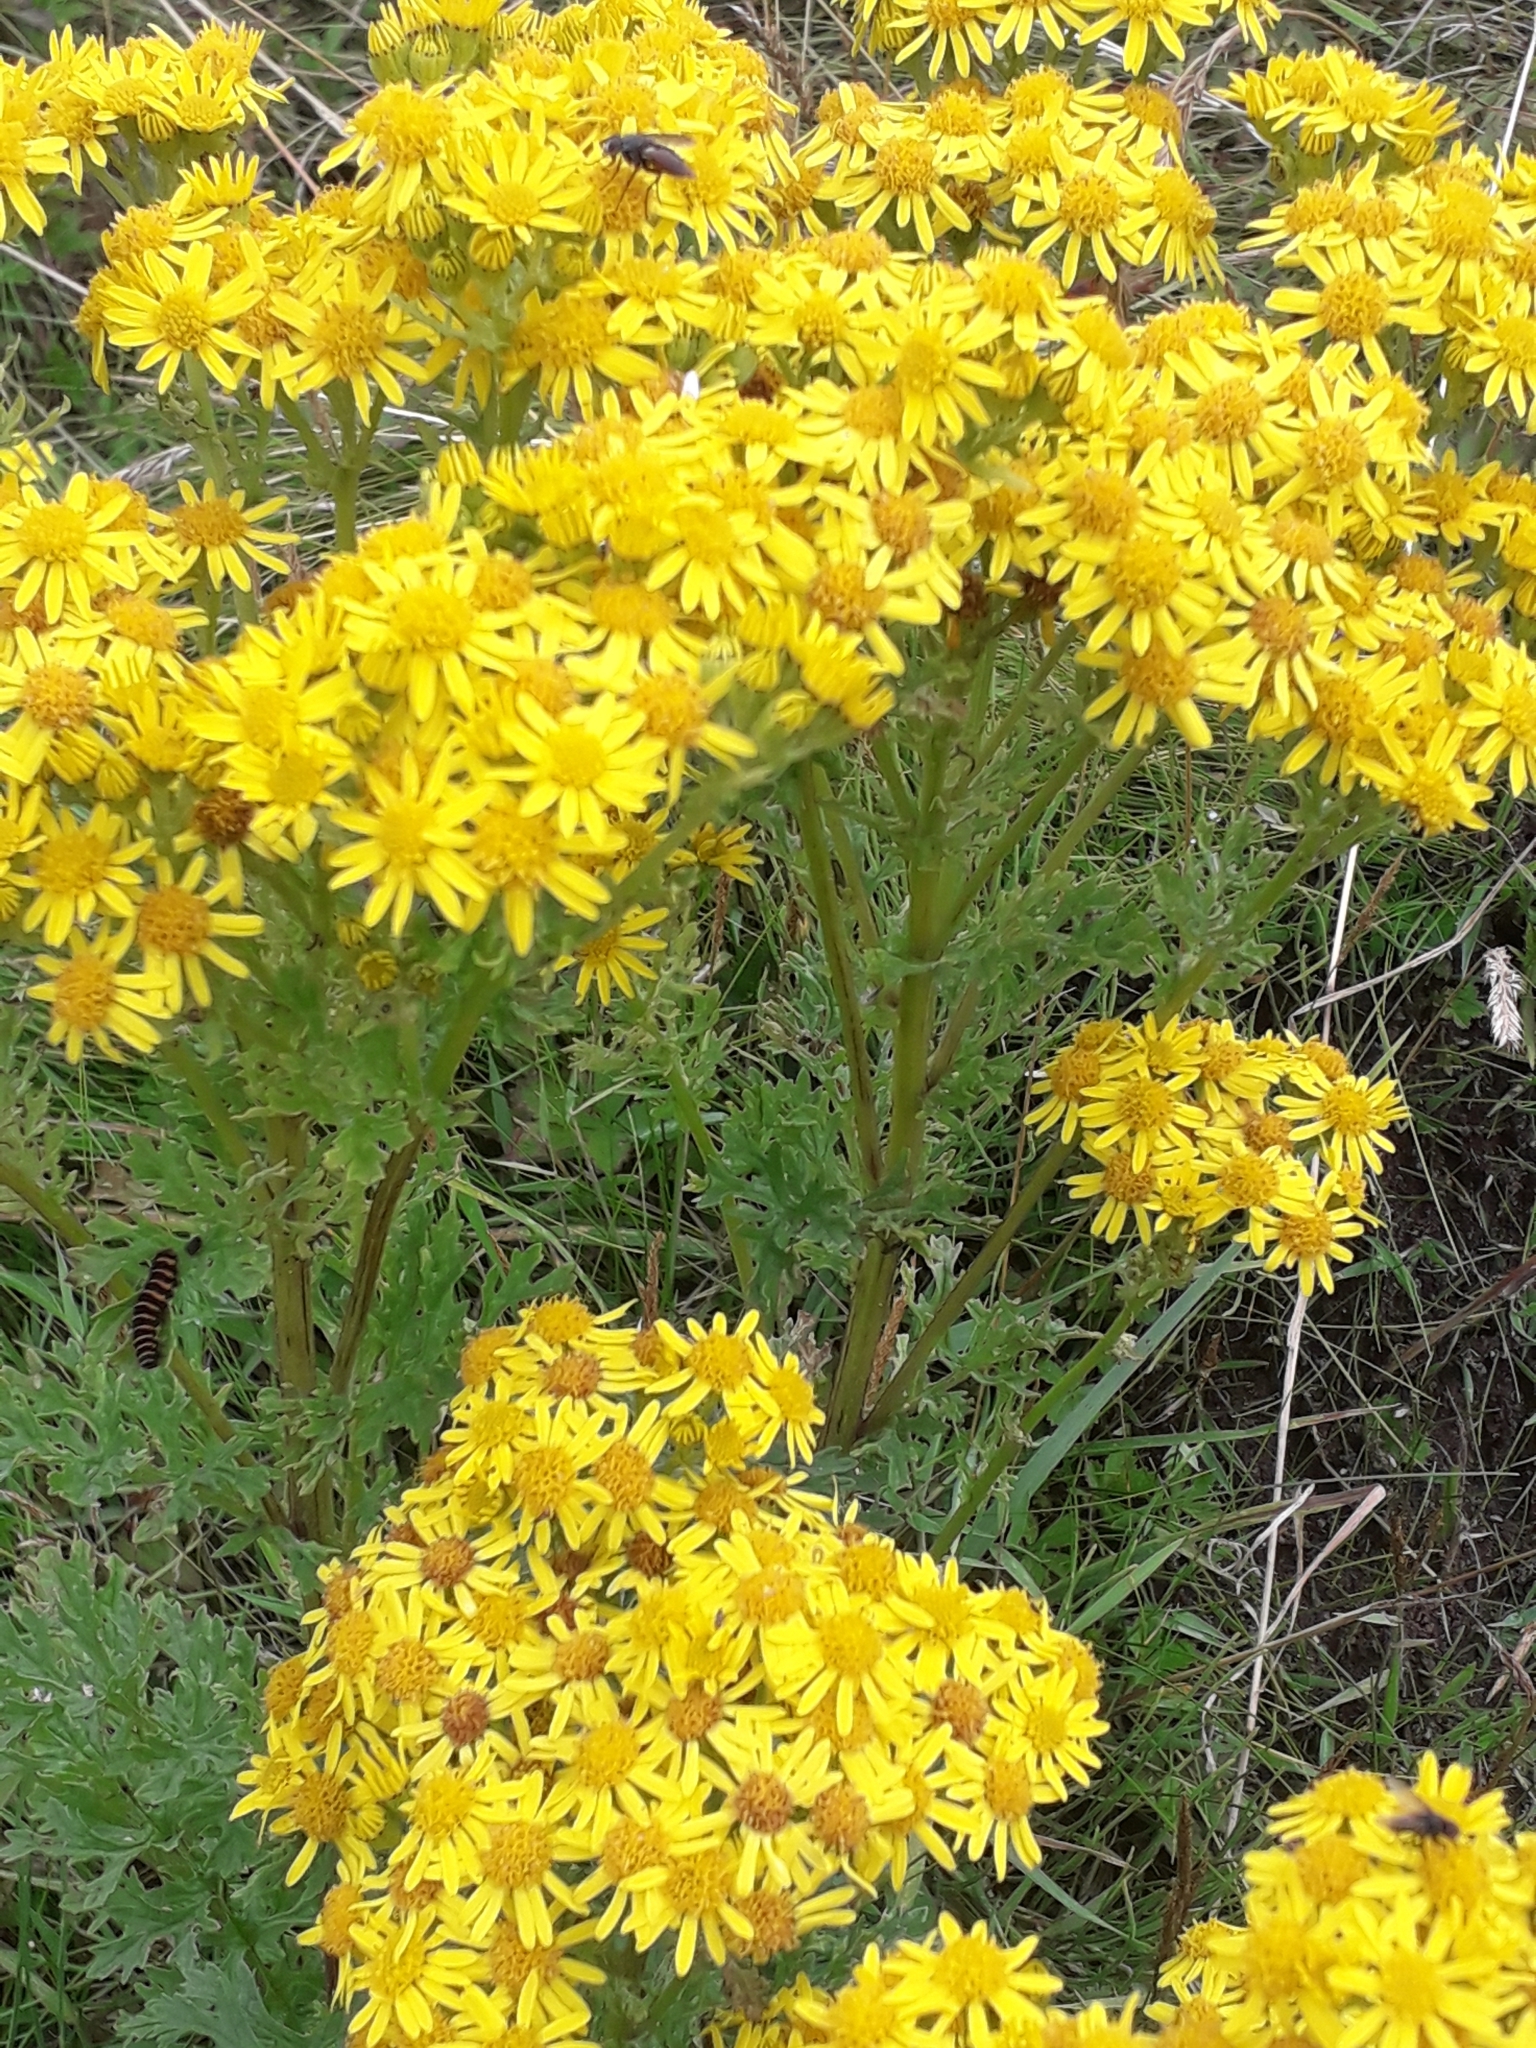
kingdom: Plantae
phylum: Tracheophyta
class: Magnoliopsida
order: Asterales
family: Asteraceae
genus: Jacobaea
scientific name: Jacobaea vulgaris
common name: Stinking willie
